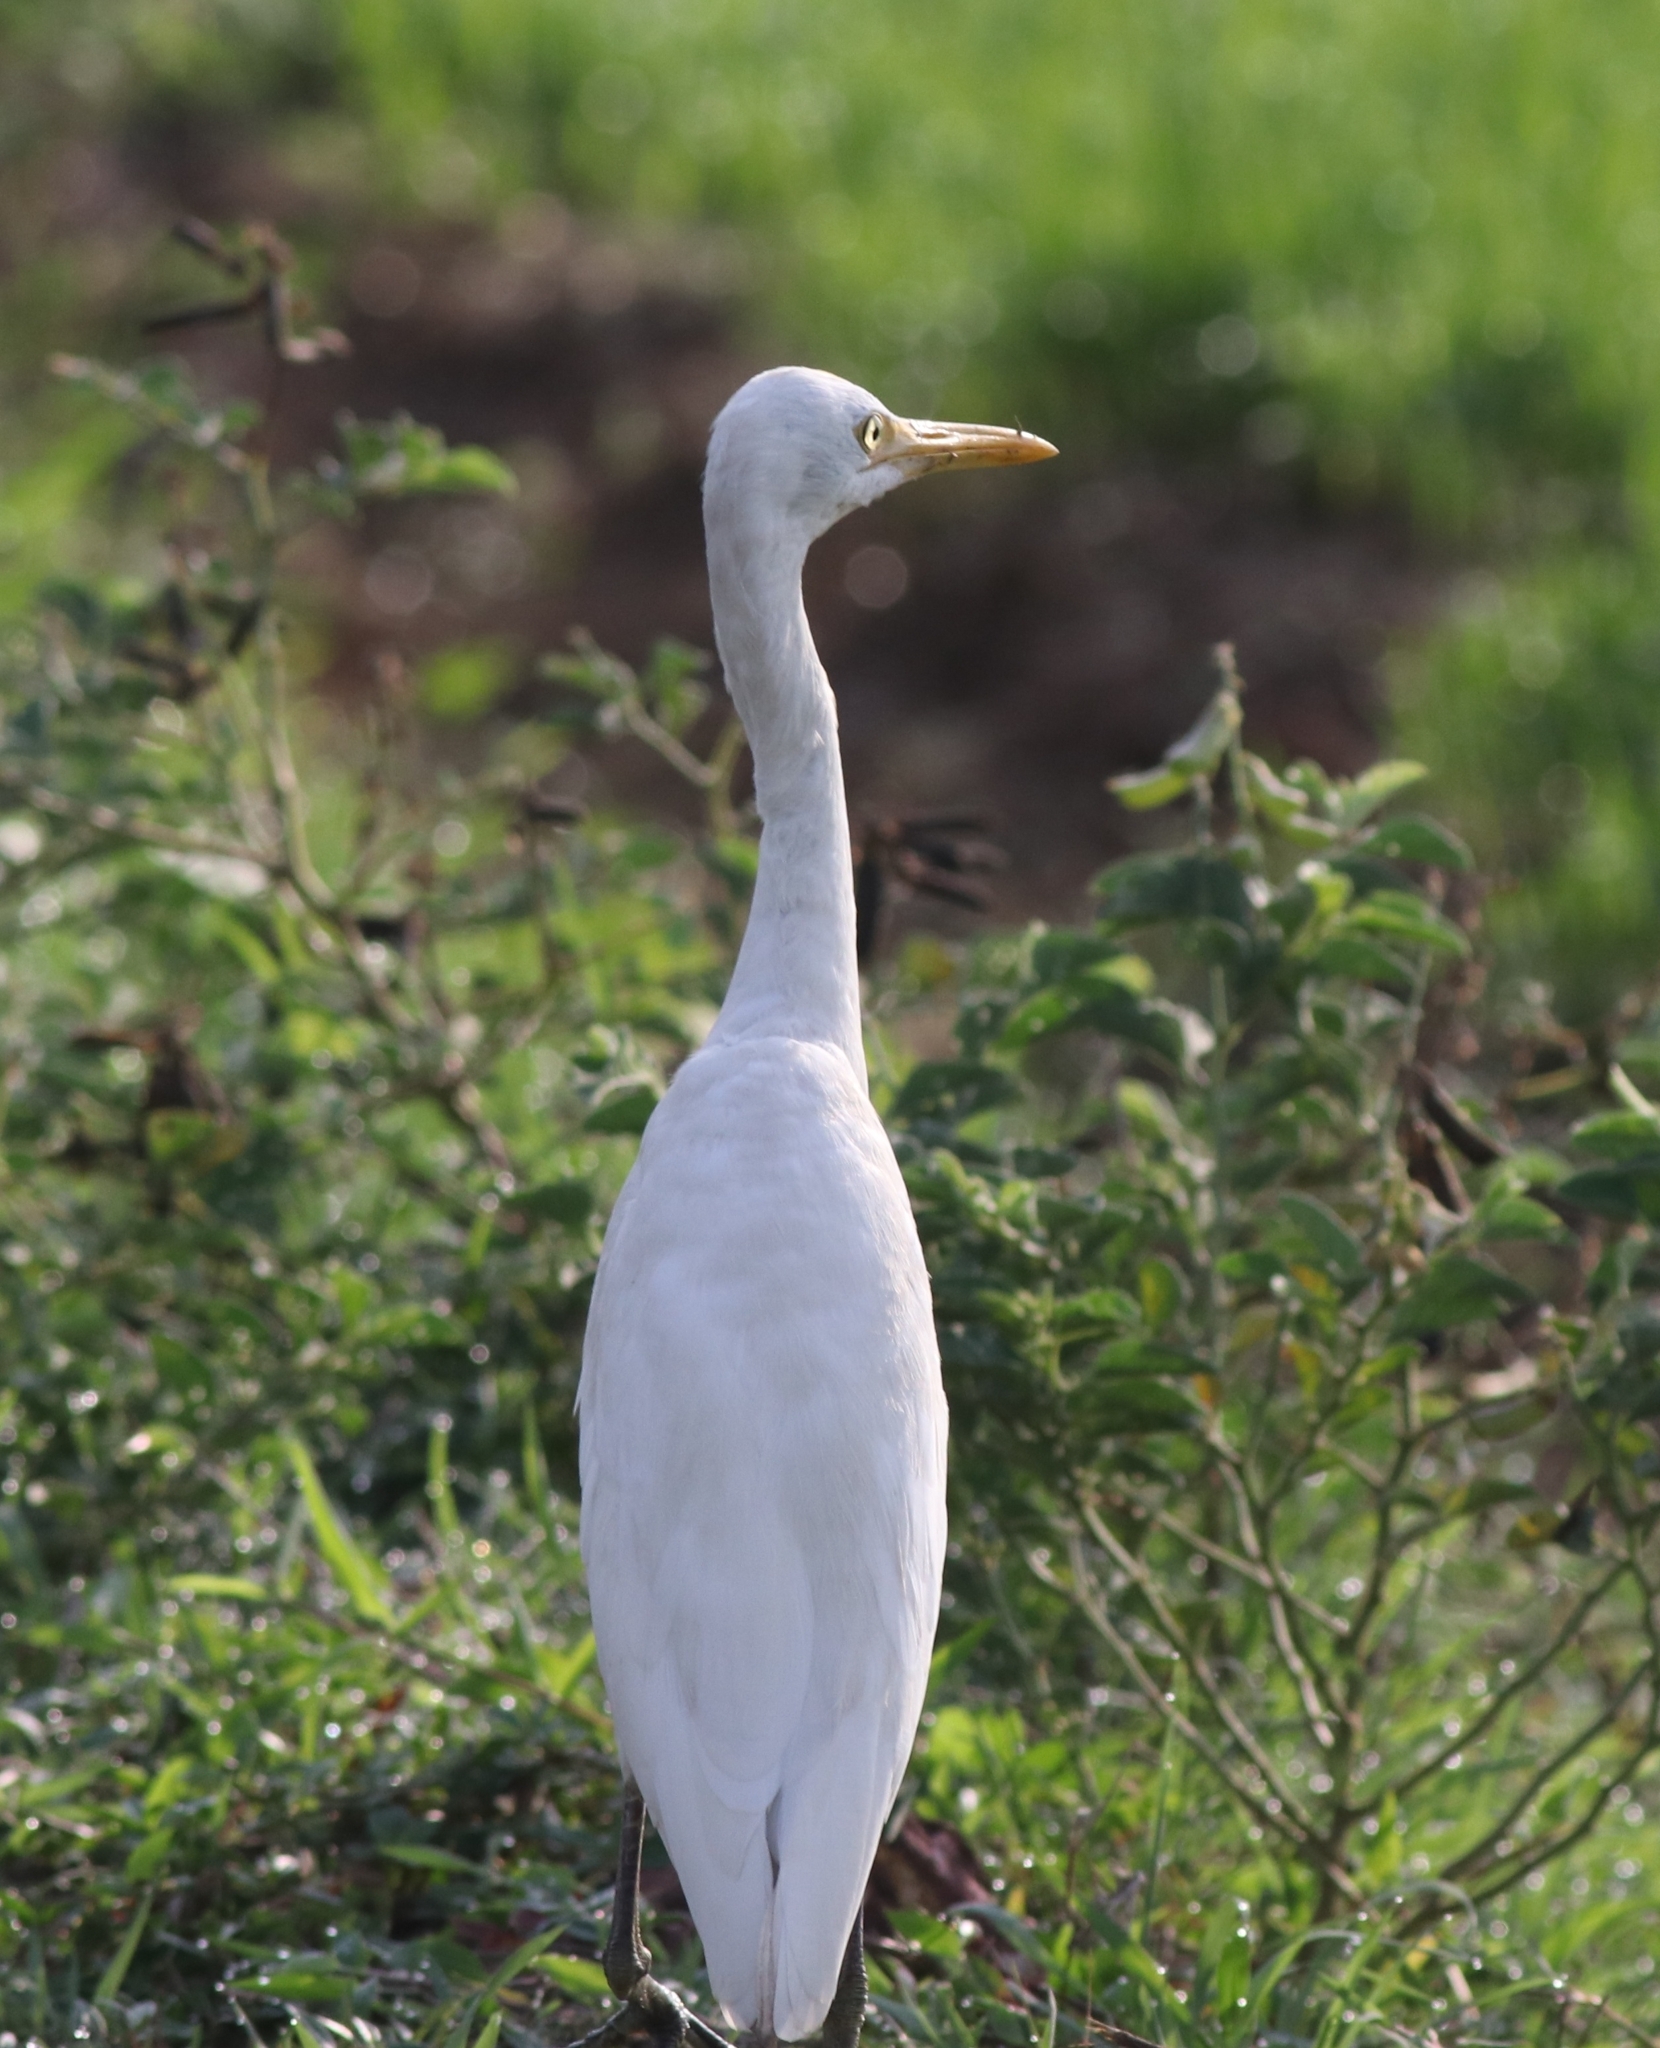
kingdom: Animalia
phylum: Chordata
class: Aves
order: Pelecaniformes
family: Ardeidae
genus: Bubulcus
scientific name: Bubulcus coromandus
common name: Eastern cattle egret
